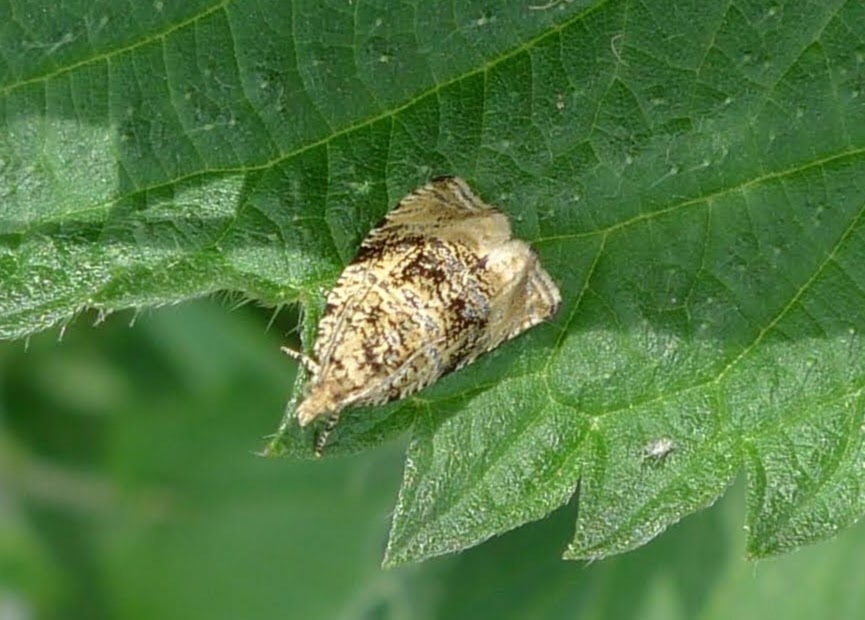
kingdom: Animalia
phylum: Arthropoda
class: Insecta
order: Lepidoptera
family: Tortricidae
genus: Syricoris
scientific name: Syricoris lacunana
